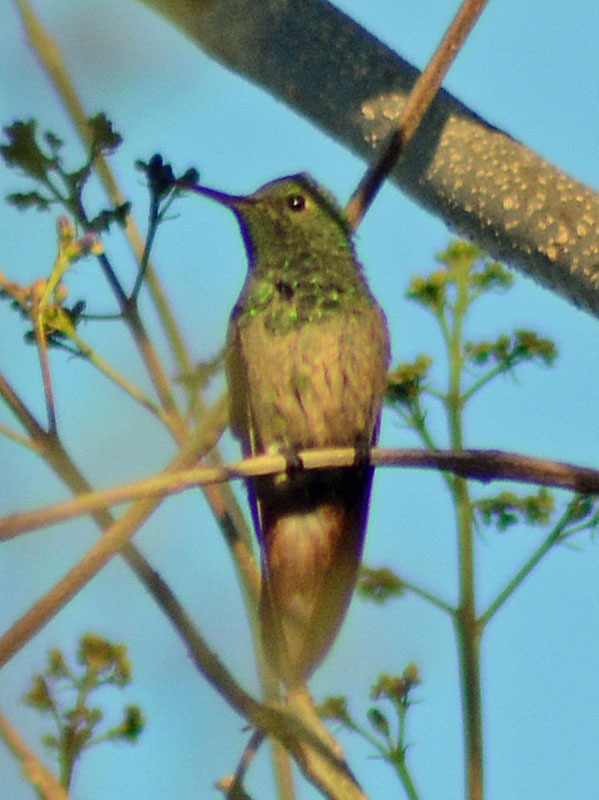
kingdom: Animalia
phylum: Chordata
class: Aves
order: Apodiformes
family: Trochilidae
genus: Saucerottia
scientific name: Saucerottia beryllina
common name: Berylline hummingbird
